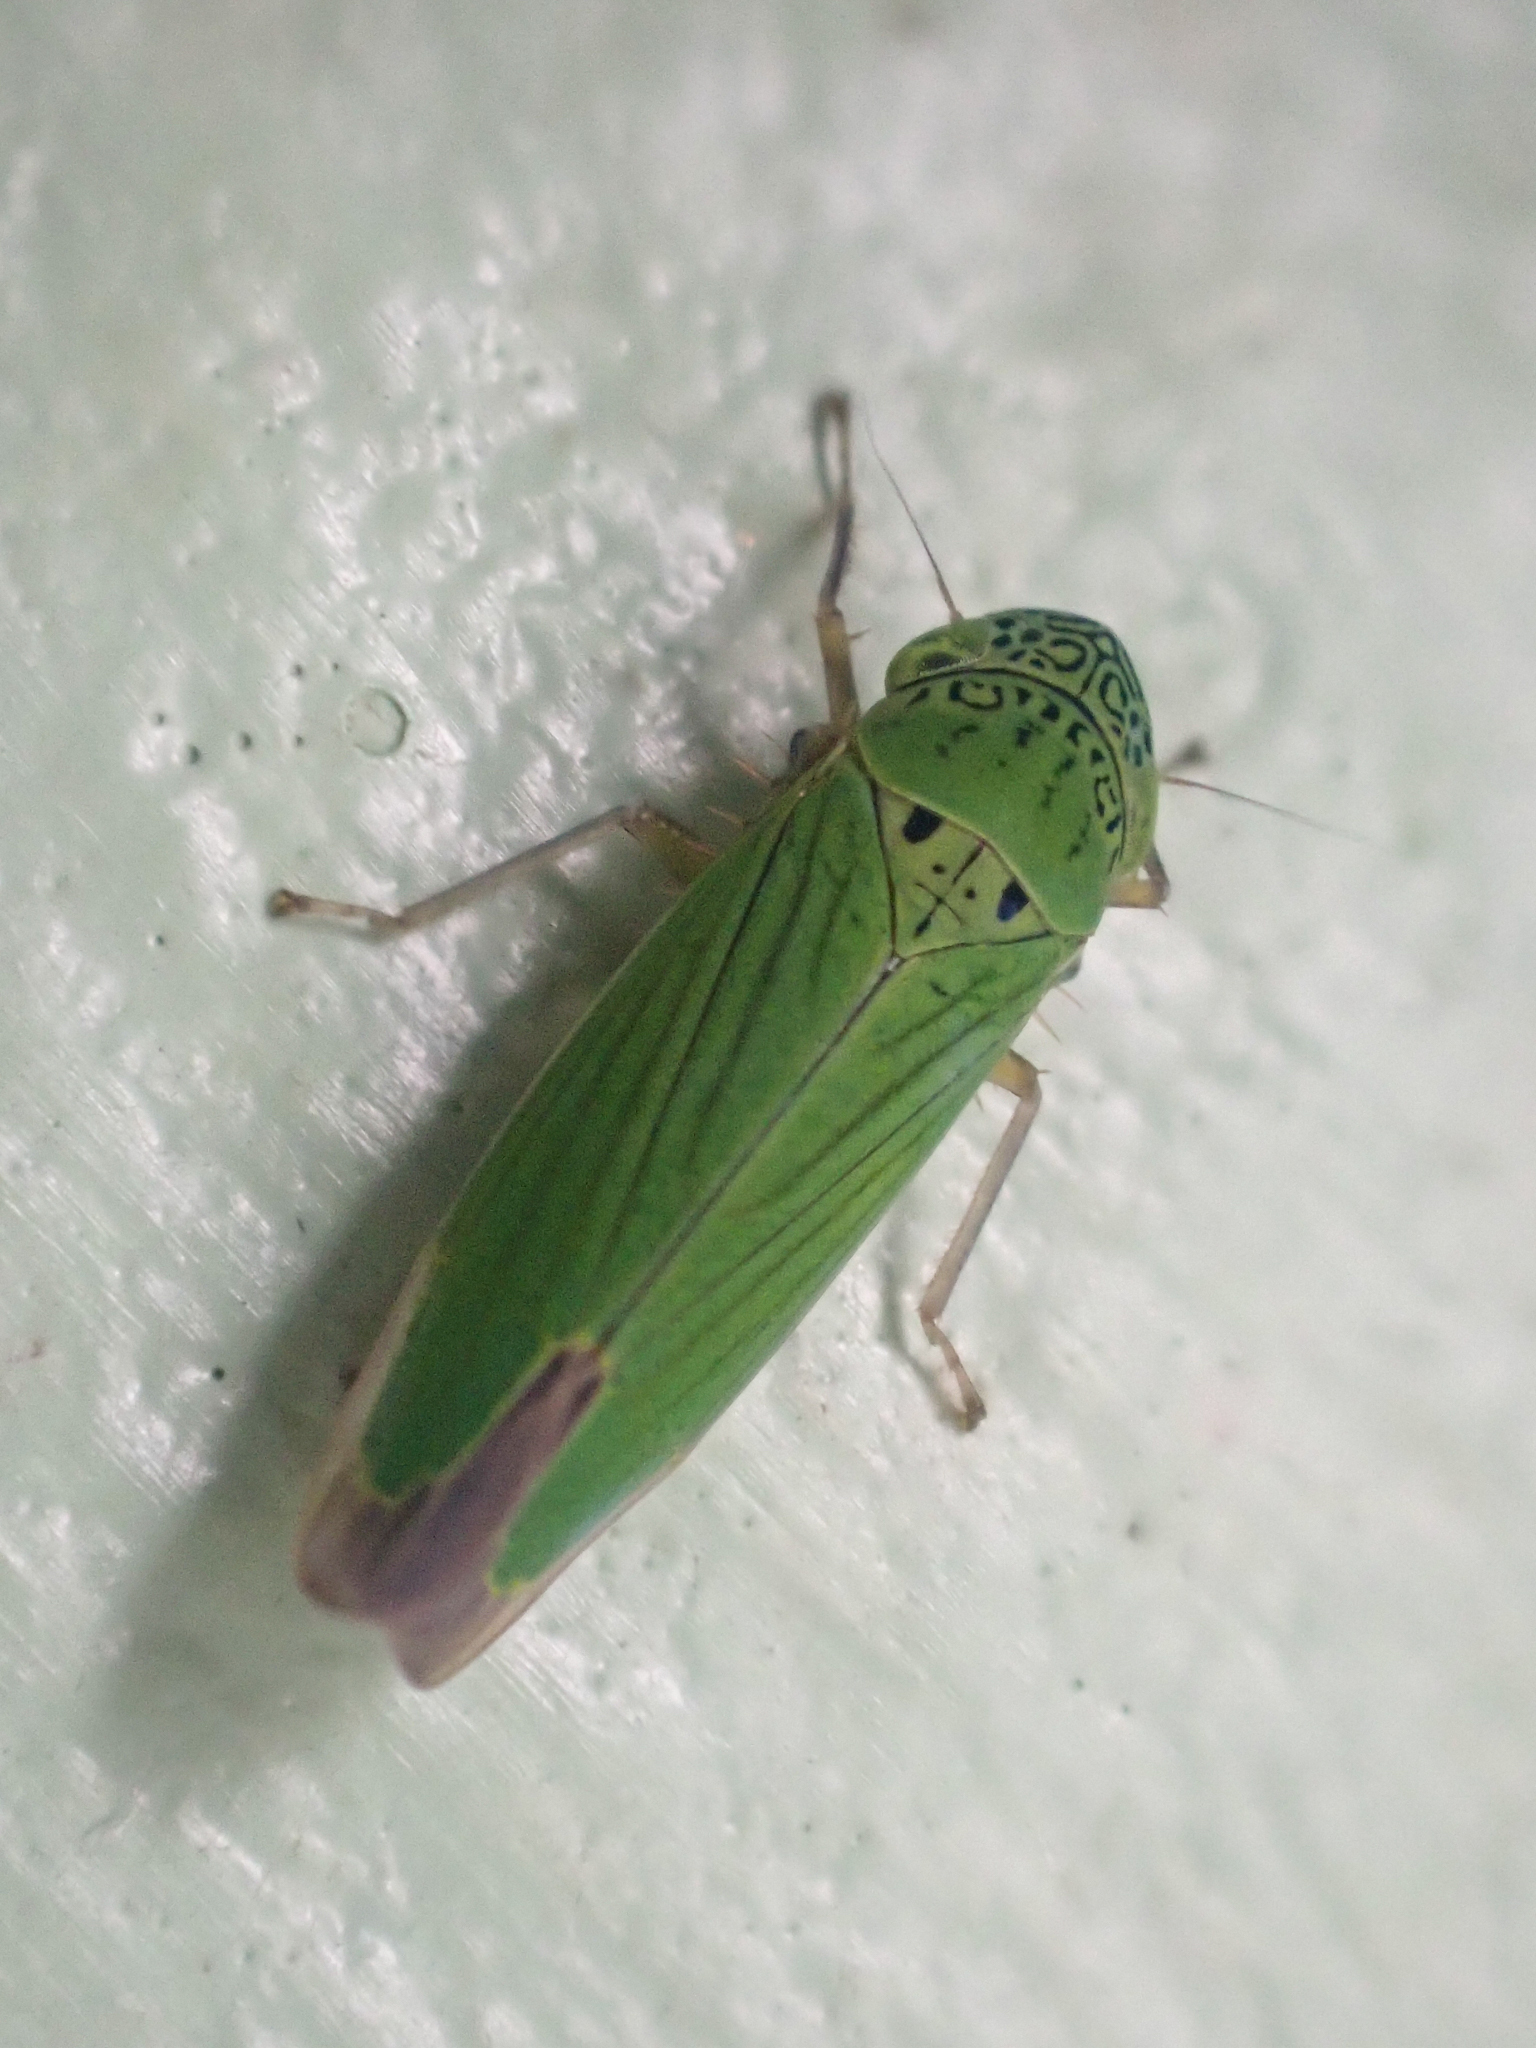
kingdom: Animalia
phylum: Arthropoda
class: Insecta
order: Hemiptera
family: Cicadellidae
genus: Hortensia
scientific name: Hortensia similis
